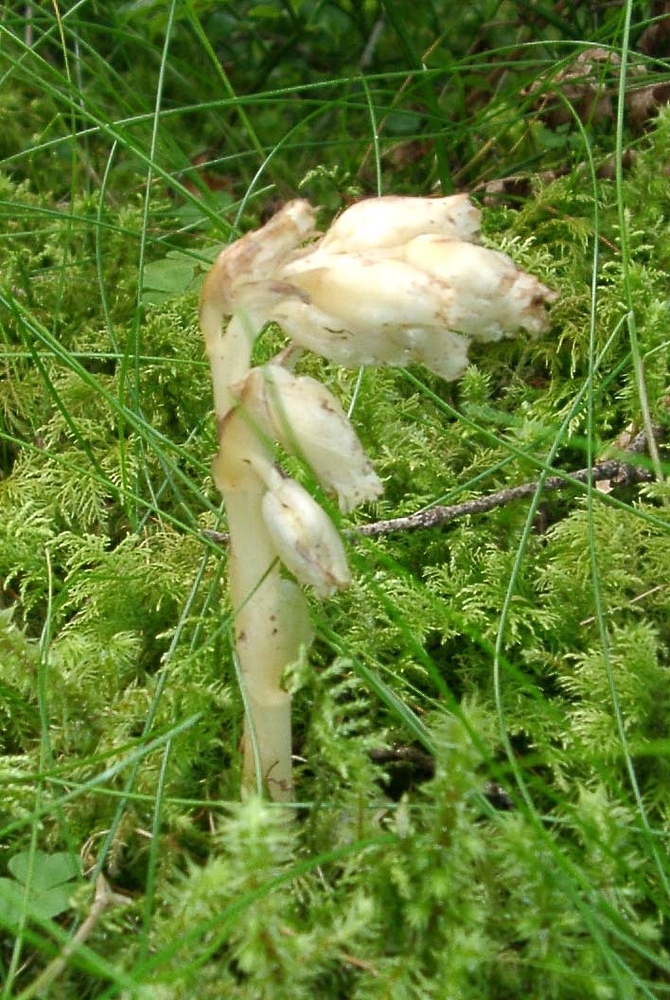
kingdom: Plantae
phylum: Tracheophyta
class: Magnoliopsida
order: Ericales
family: Ericaceae
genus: Hypopitys
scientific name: Hypopitys monotropa
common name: Yellow bird's-nest
